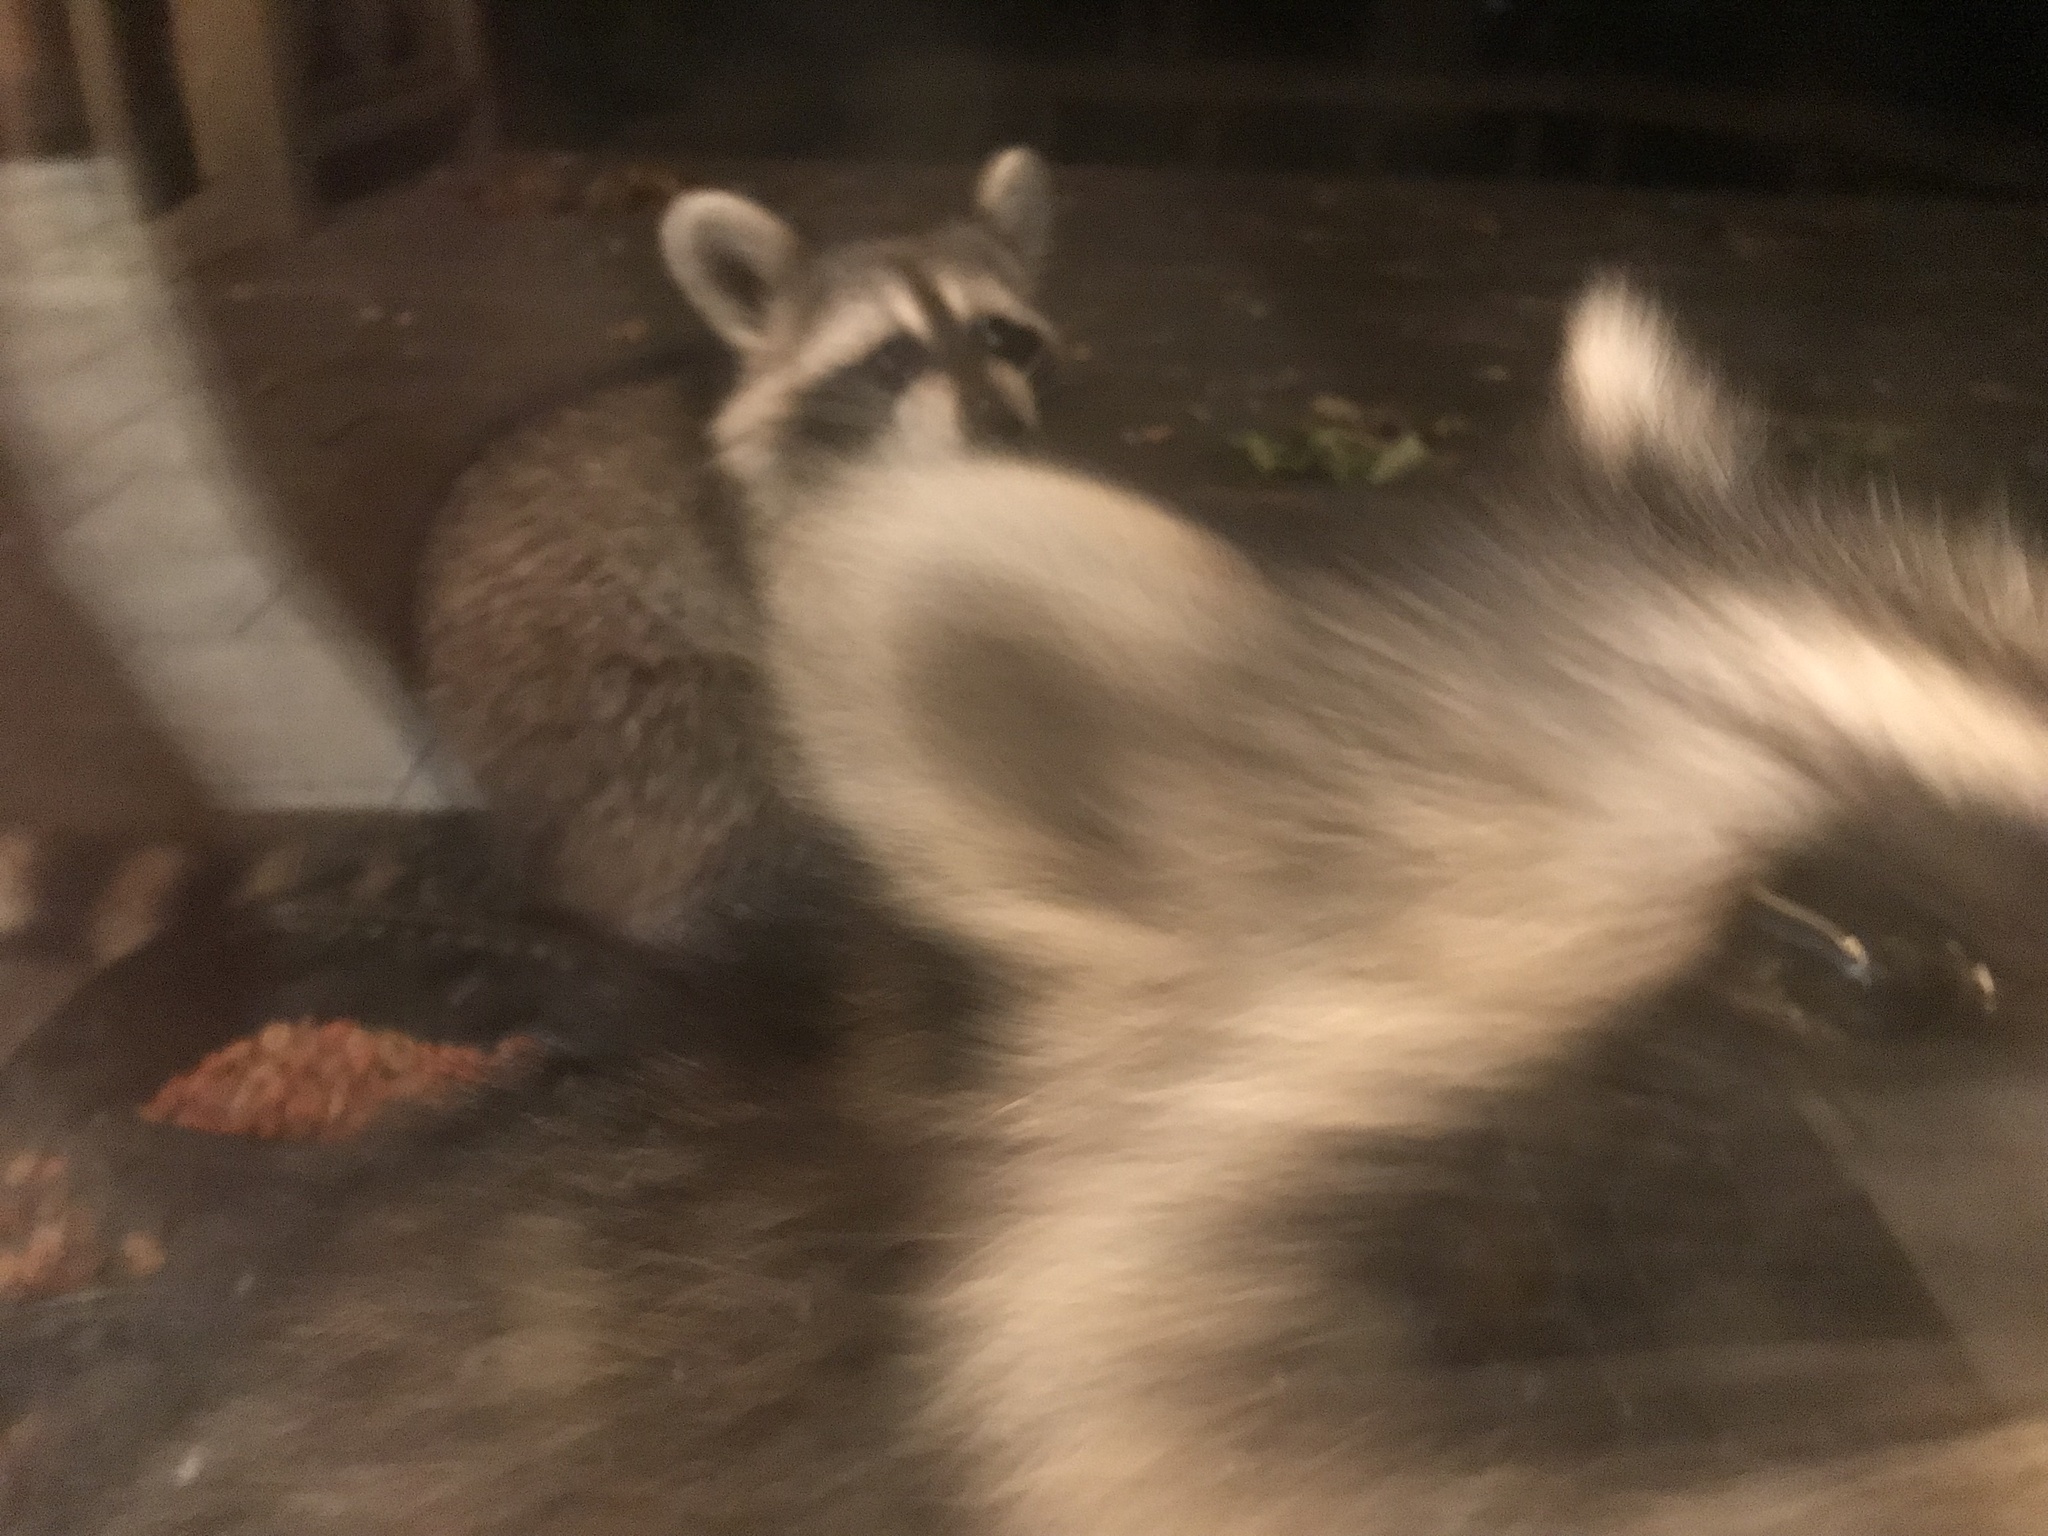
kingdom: Animalia
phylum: Chordata
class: Mammalia
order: Carnivora
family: Procyonidae
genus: Procyon
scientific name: Procyon lotor
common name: Raccoon
